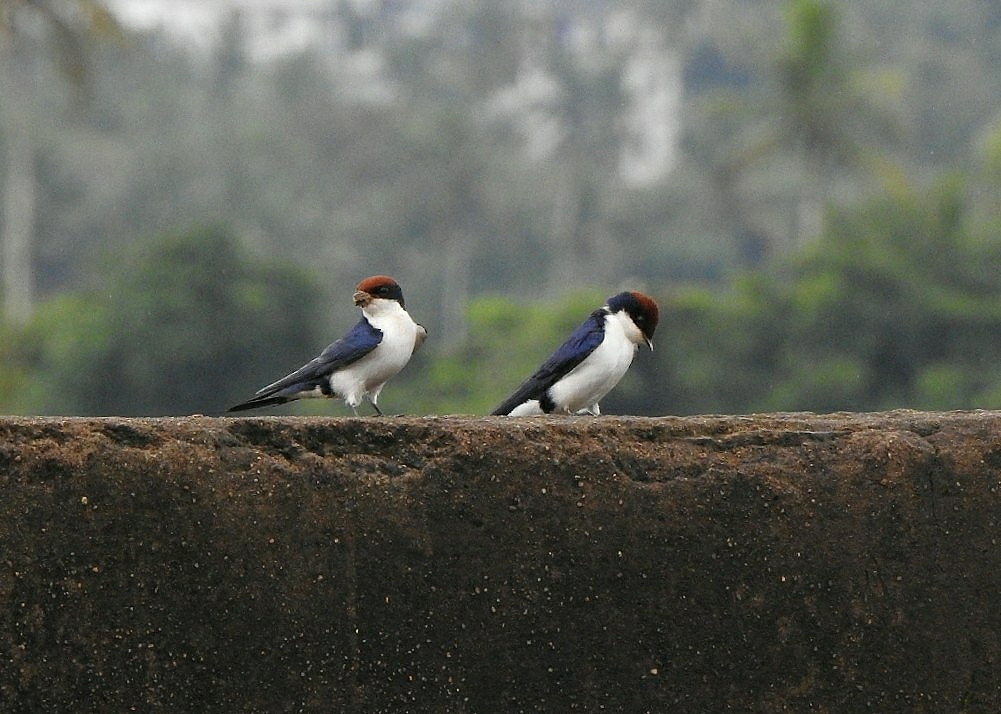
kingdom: Animalia
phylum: Chordata
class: Aves
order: Passeriformes
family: Hirundinidae
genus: Hirundo
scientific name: Hirundo smithii
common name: Wire-tailed swallow
